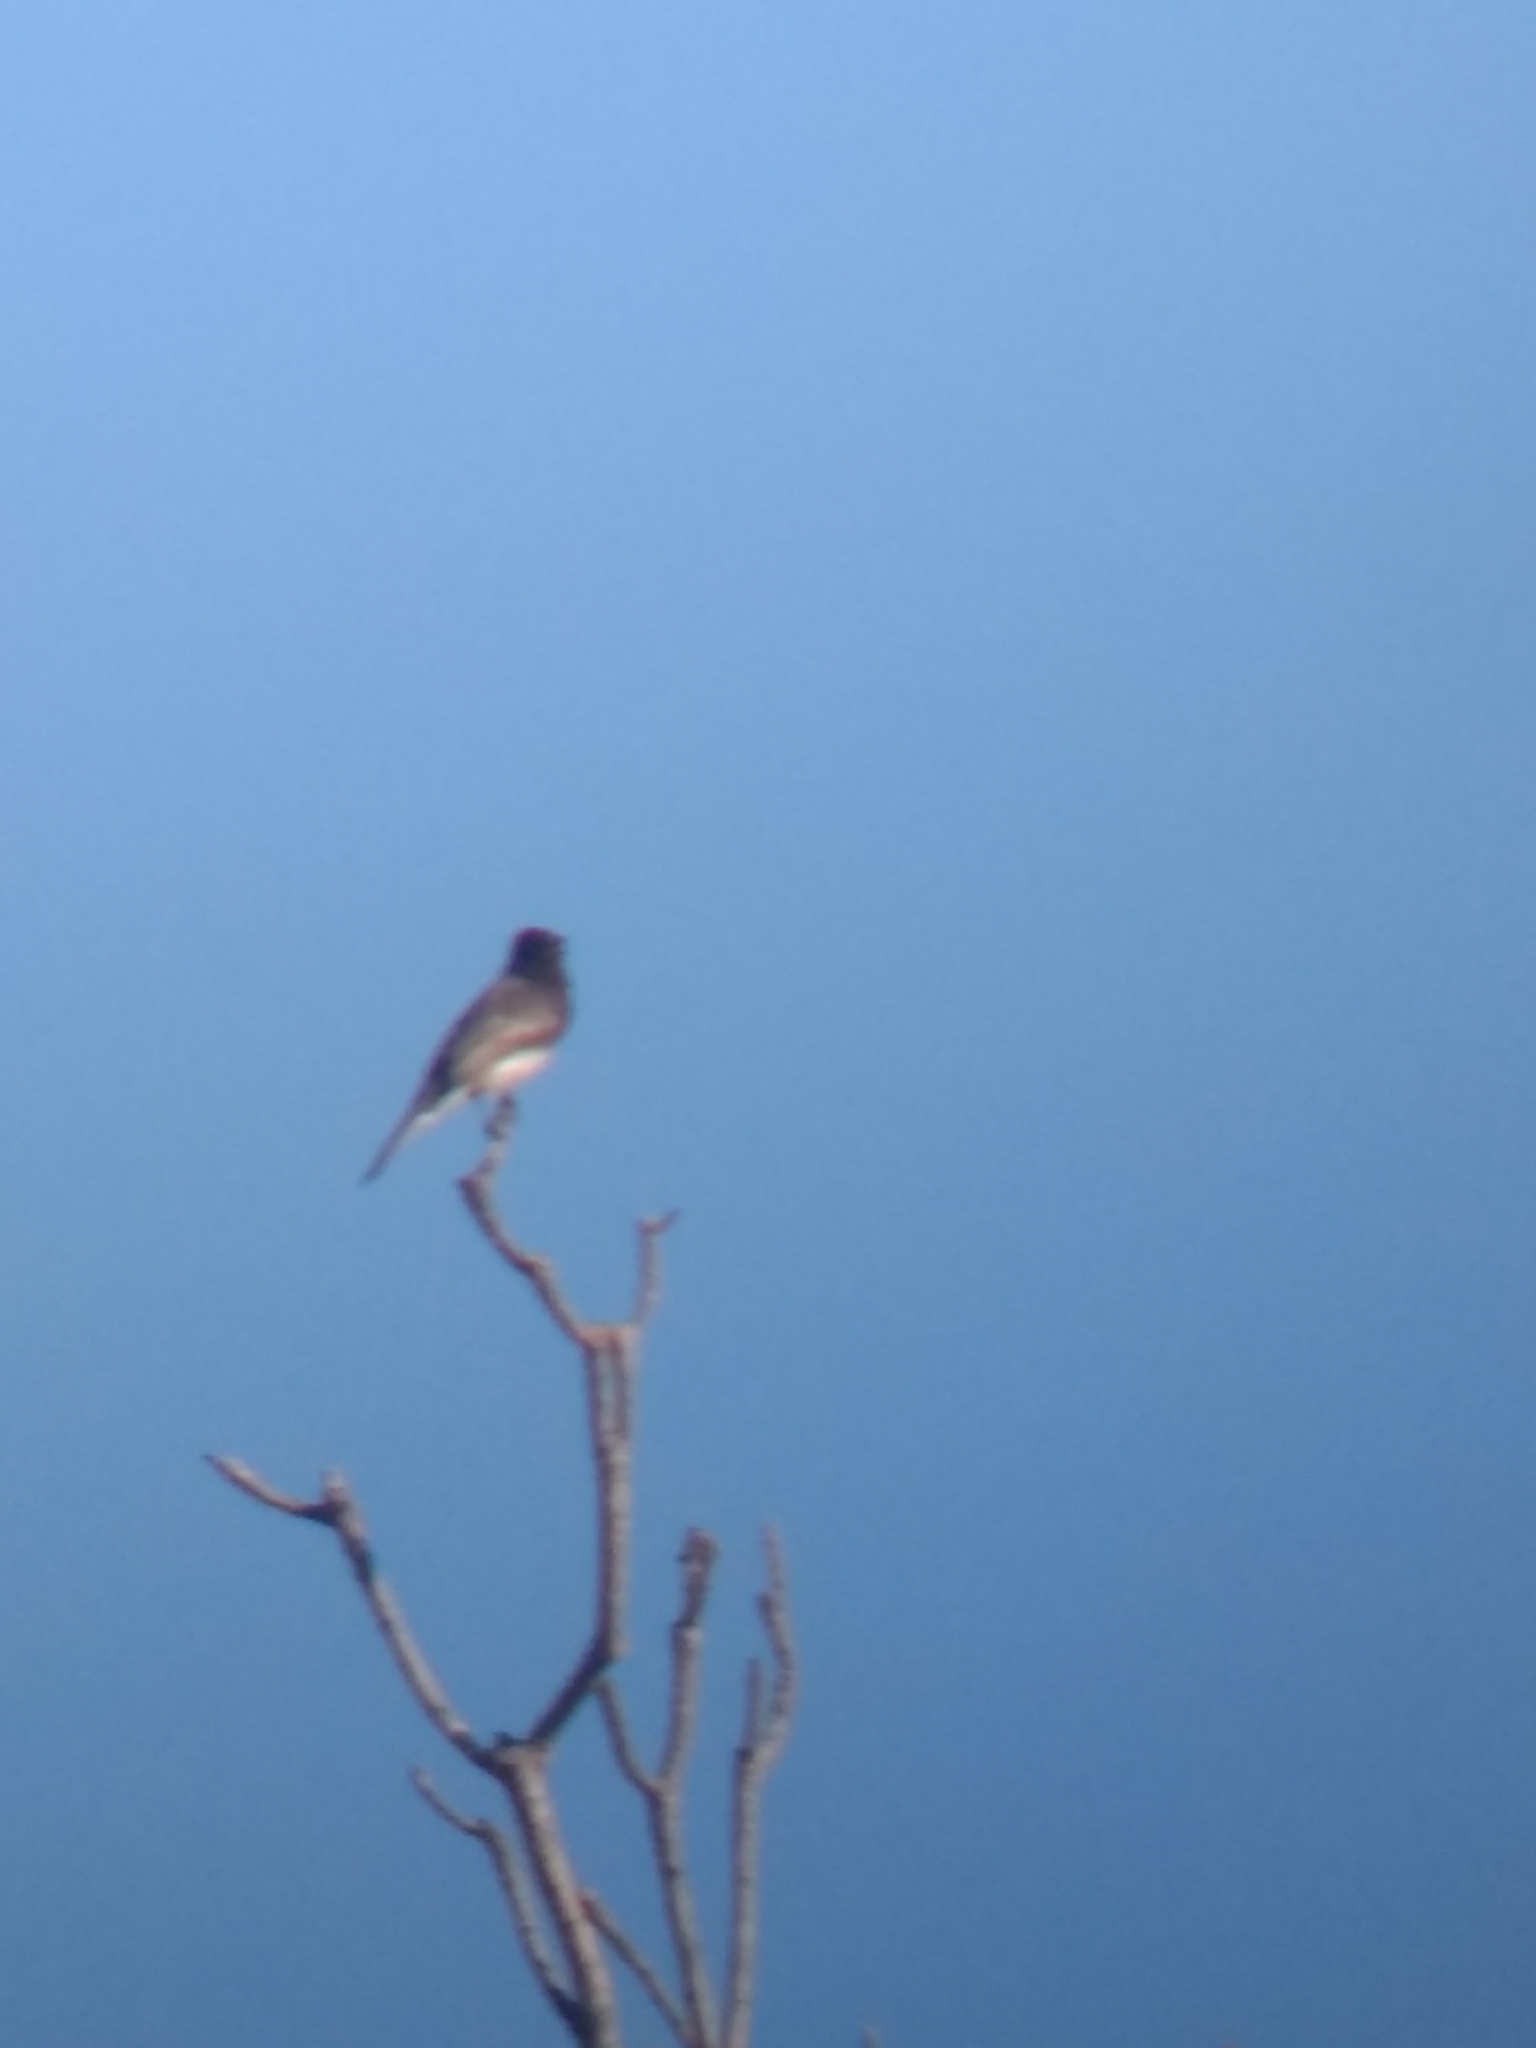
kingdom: Animalia
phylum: Chordata
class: Aves
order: Passeriformes
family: Tyrannidae
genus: Sayornis
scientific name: Sayornis nigricans
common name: Black phoebe
